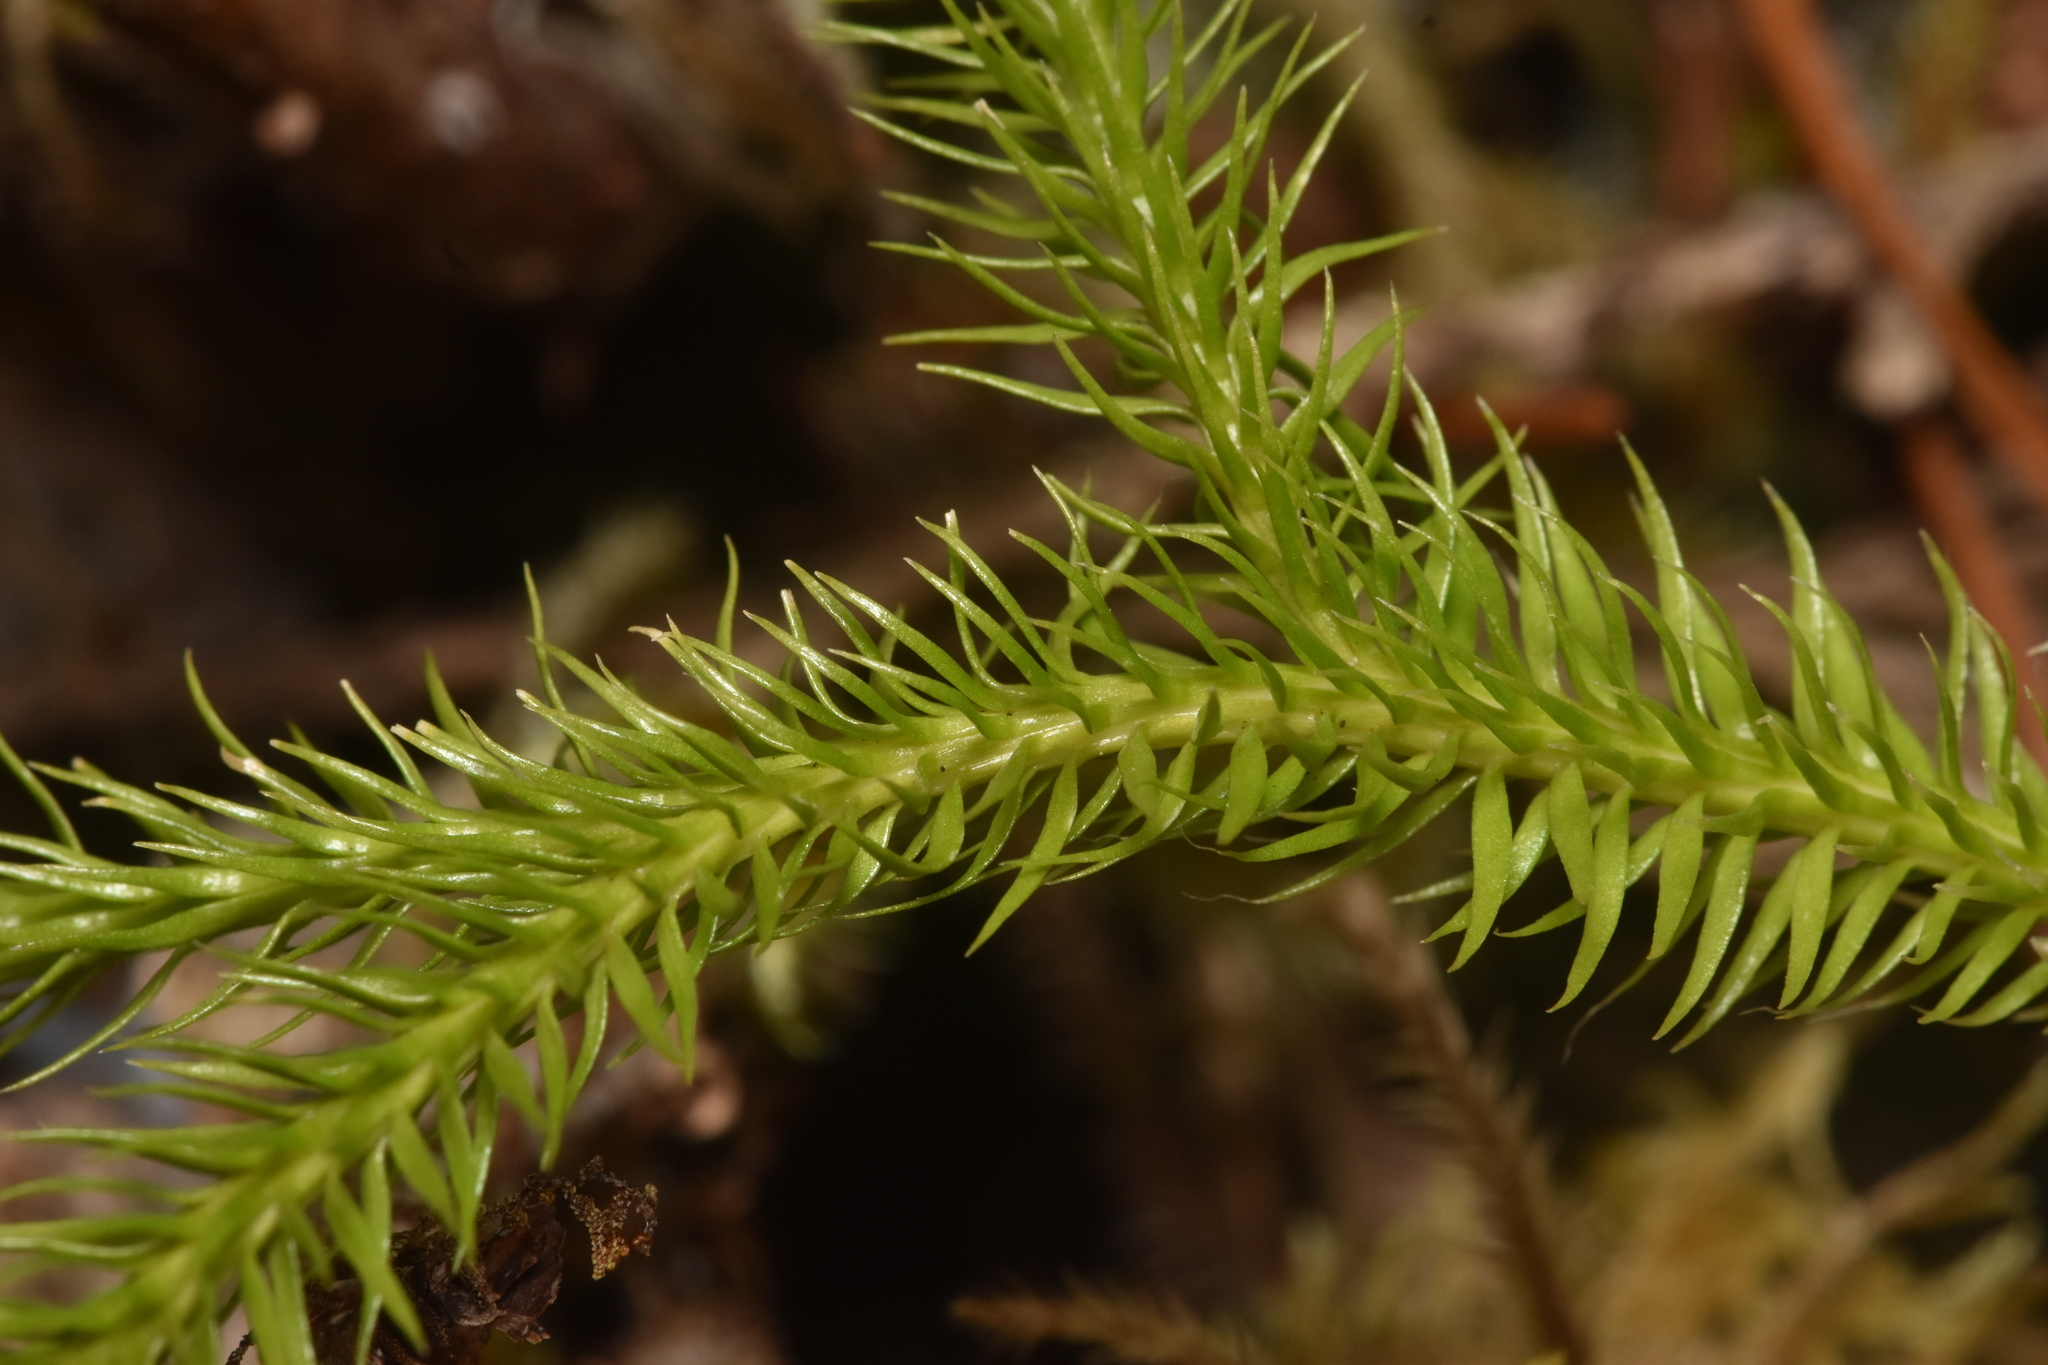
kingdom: Plantae
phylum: Tracheophyta
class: Lycopodiopsida
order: Lycopodiales
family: Lycopodiaceae
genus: Lycopodium
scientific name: Lycopodium clavatum
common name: Stag's-horn clubmoss
